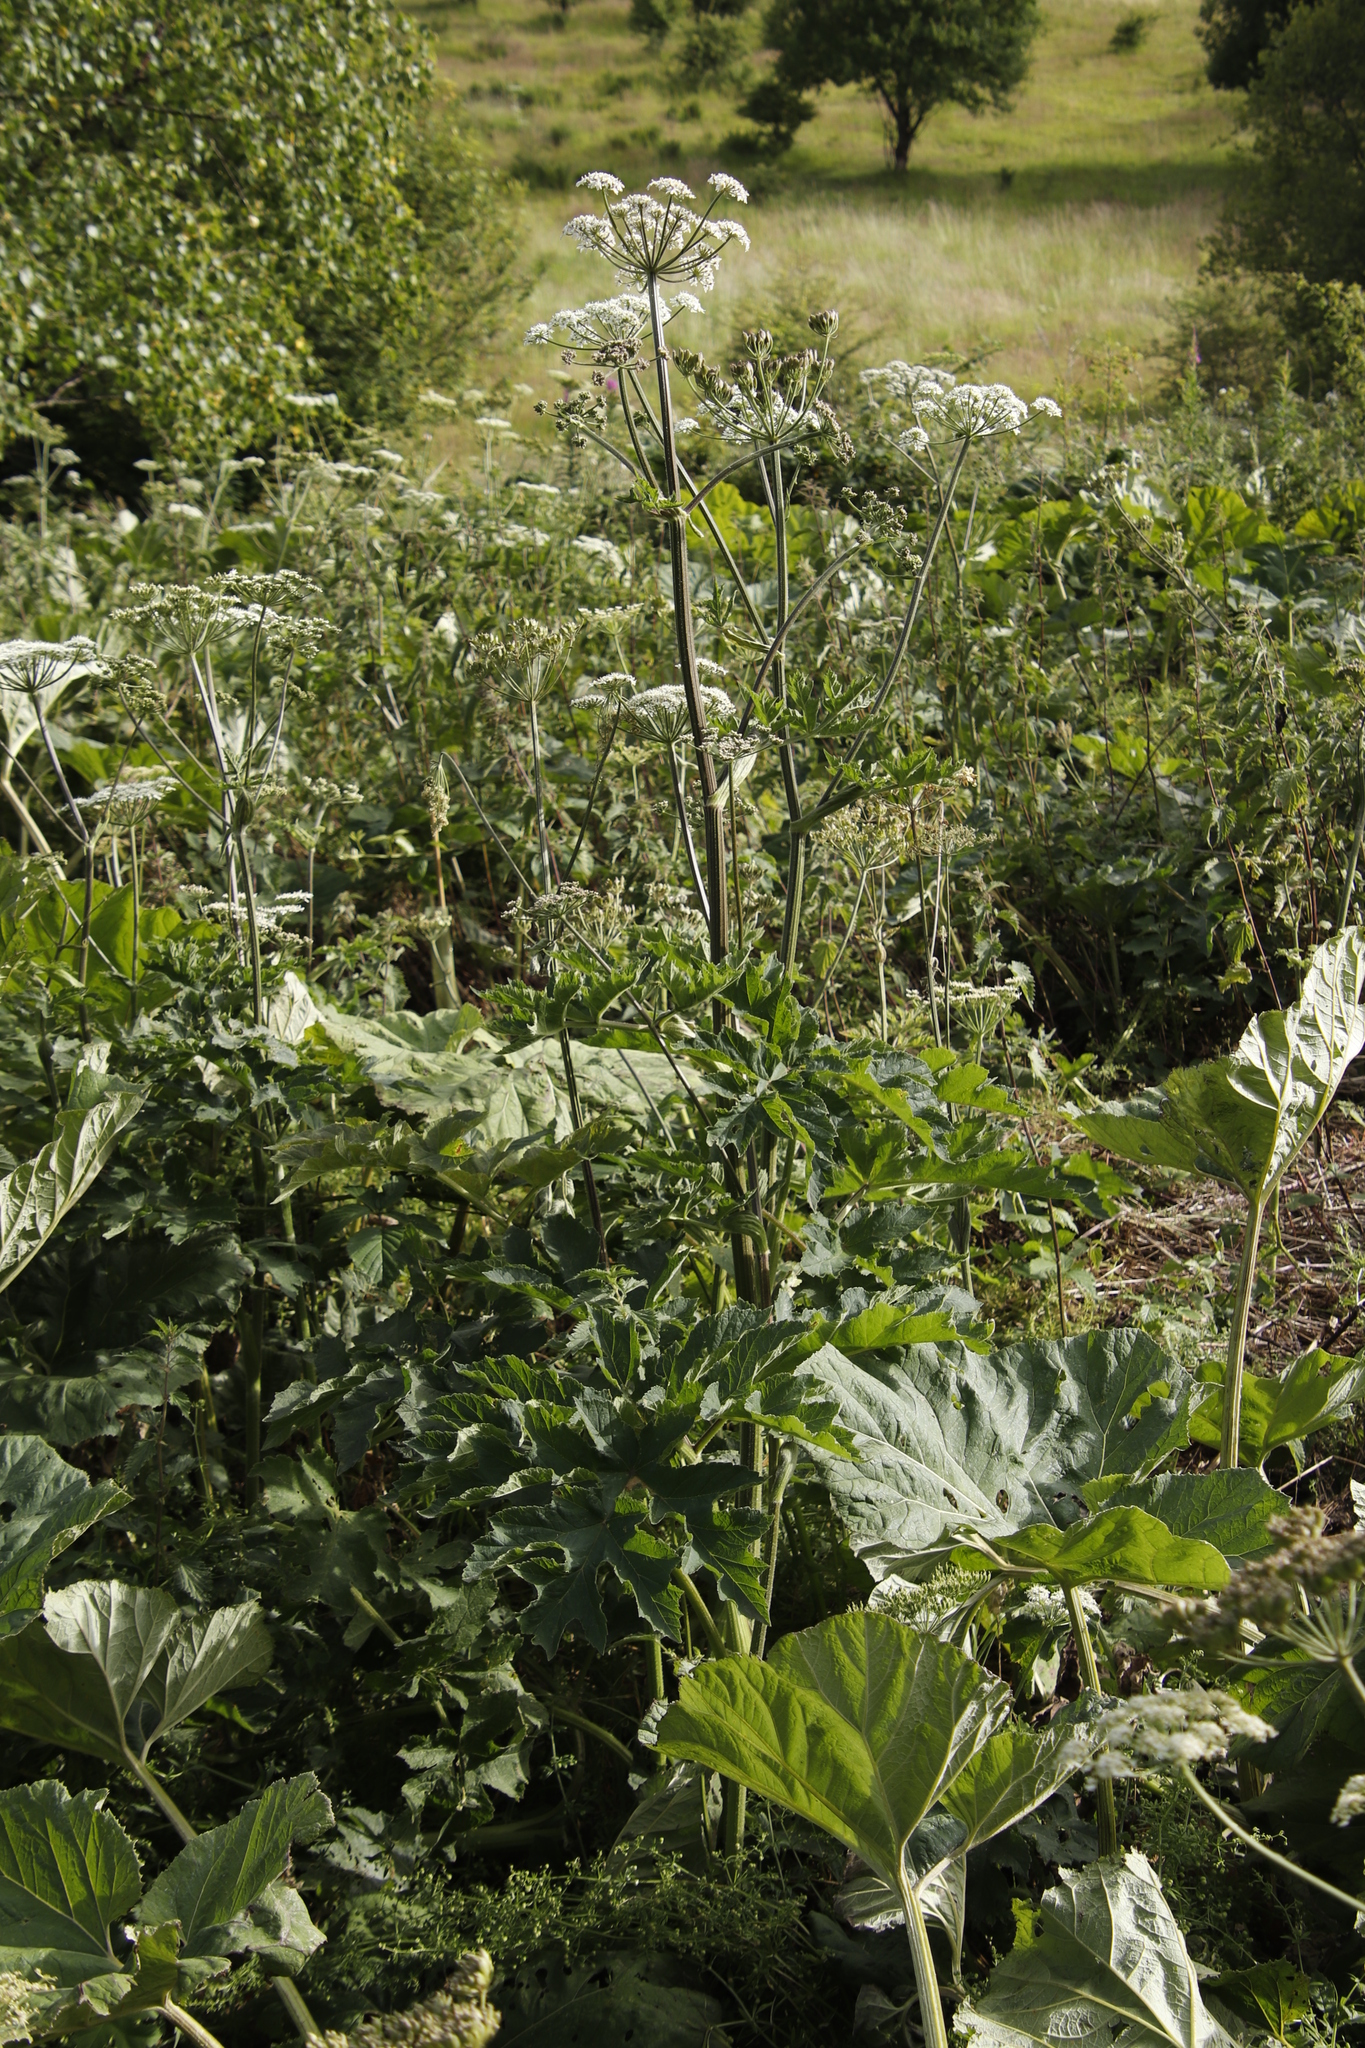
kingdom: Plantae
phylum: Tracheophyta
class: Magnoliopsida
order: Apiales
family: Apiaceae
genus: Heracleum
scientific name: Heracleum sphondylium
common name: Hogweed
